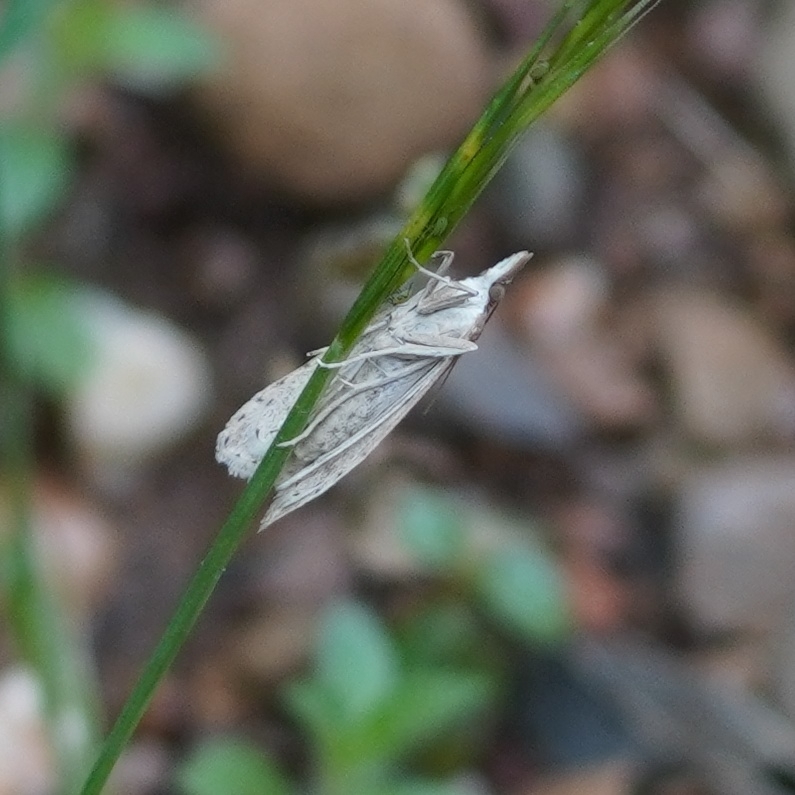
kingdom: Animalia
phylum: Arthropoda
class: Insecta
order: Lepidoptera
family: Crambidae
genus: Udea
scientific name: Udea numeralis
